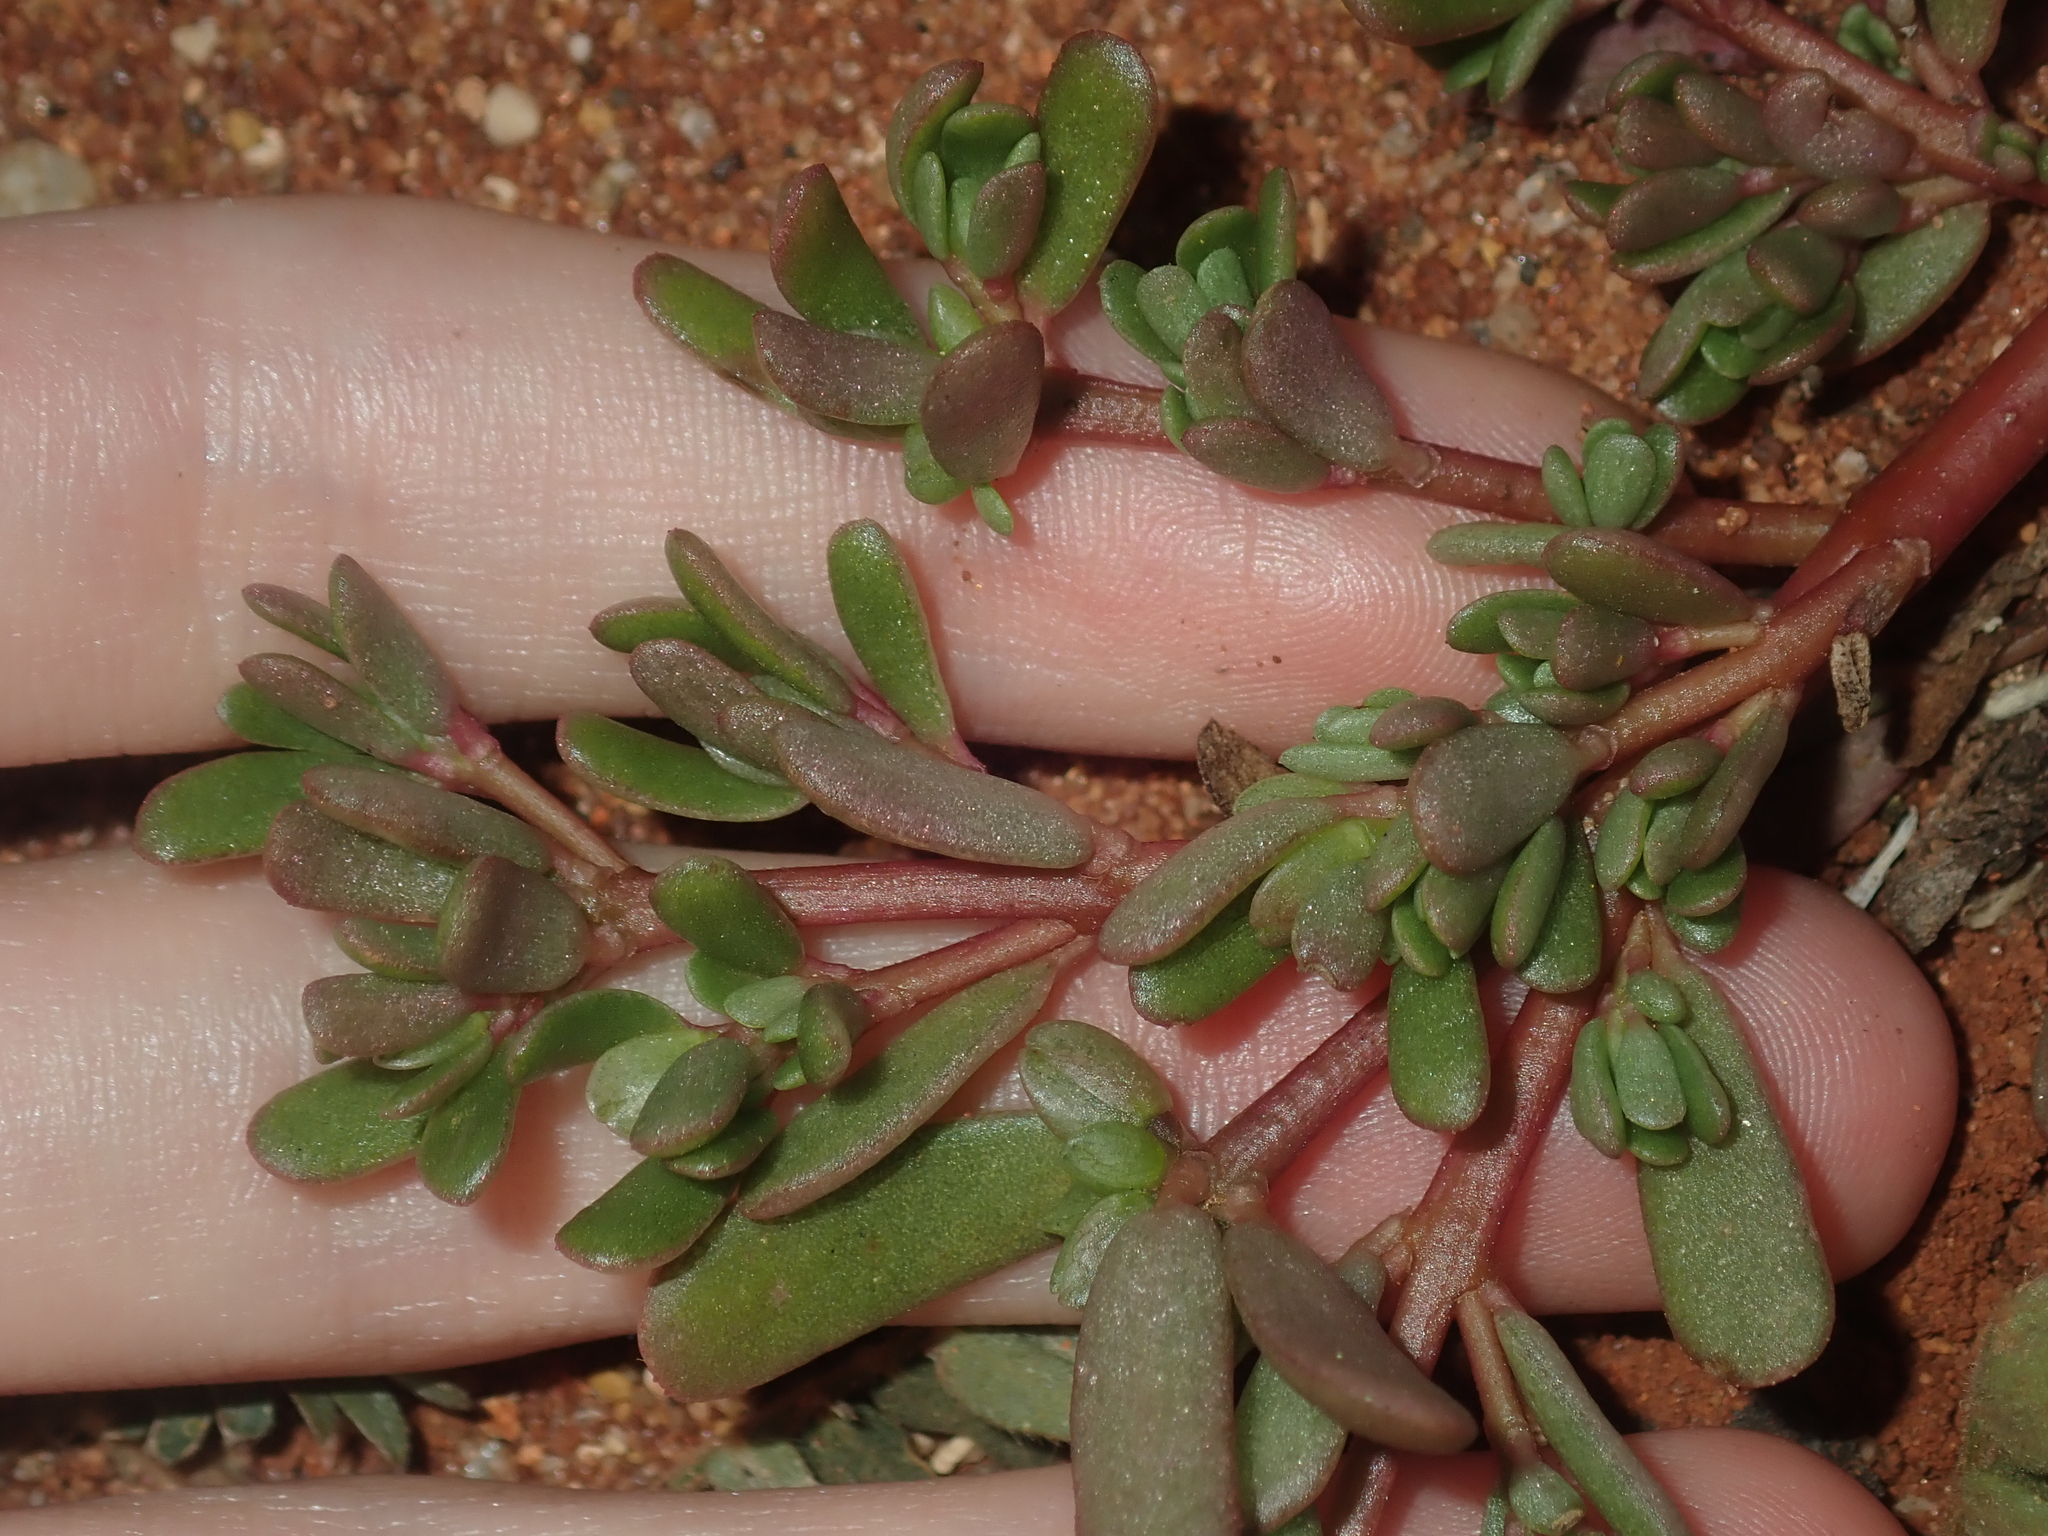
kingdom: Plantae
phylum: Tracheophyta
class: Magnoliopsida
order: Caryophyllales
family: Portulacaceae
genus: Portulaca
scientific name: Portulaca oleracea
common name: Common purslane
